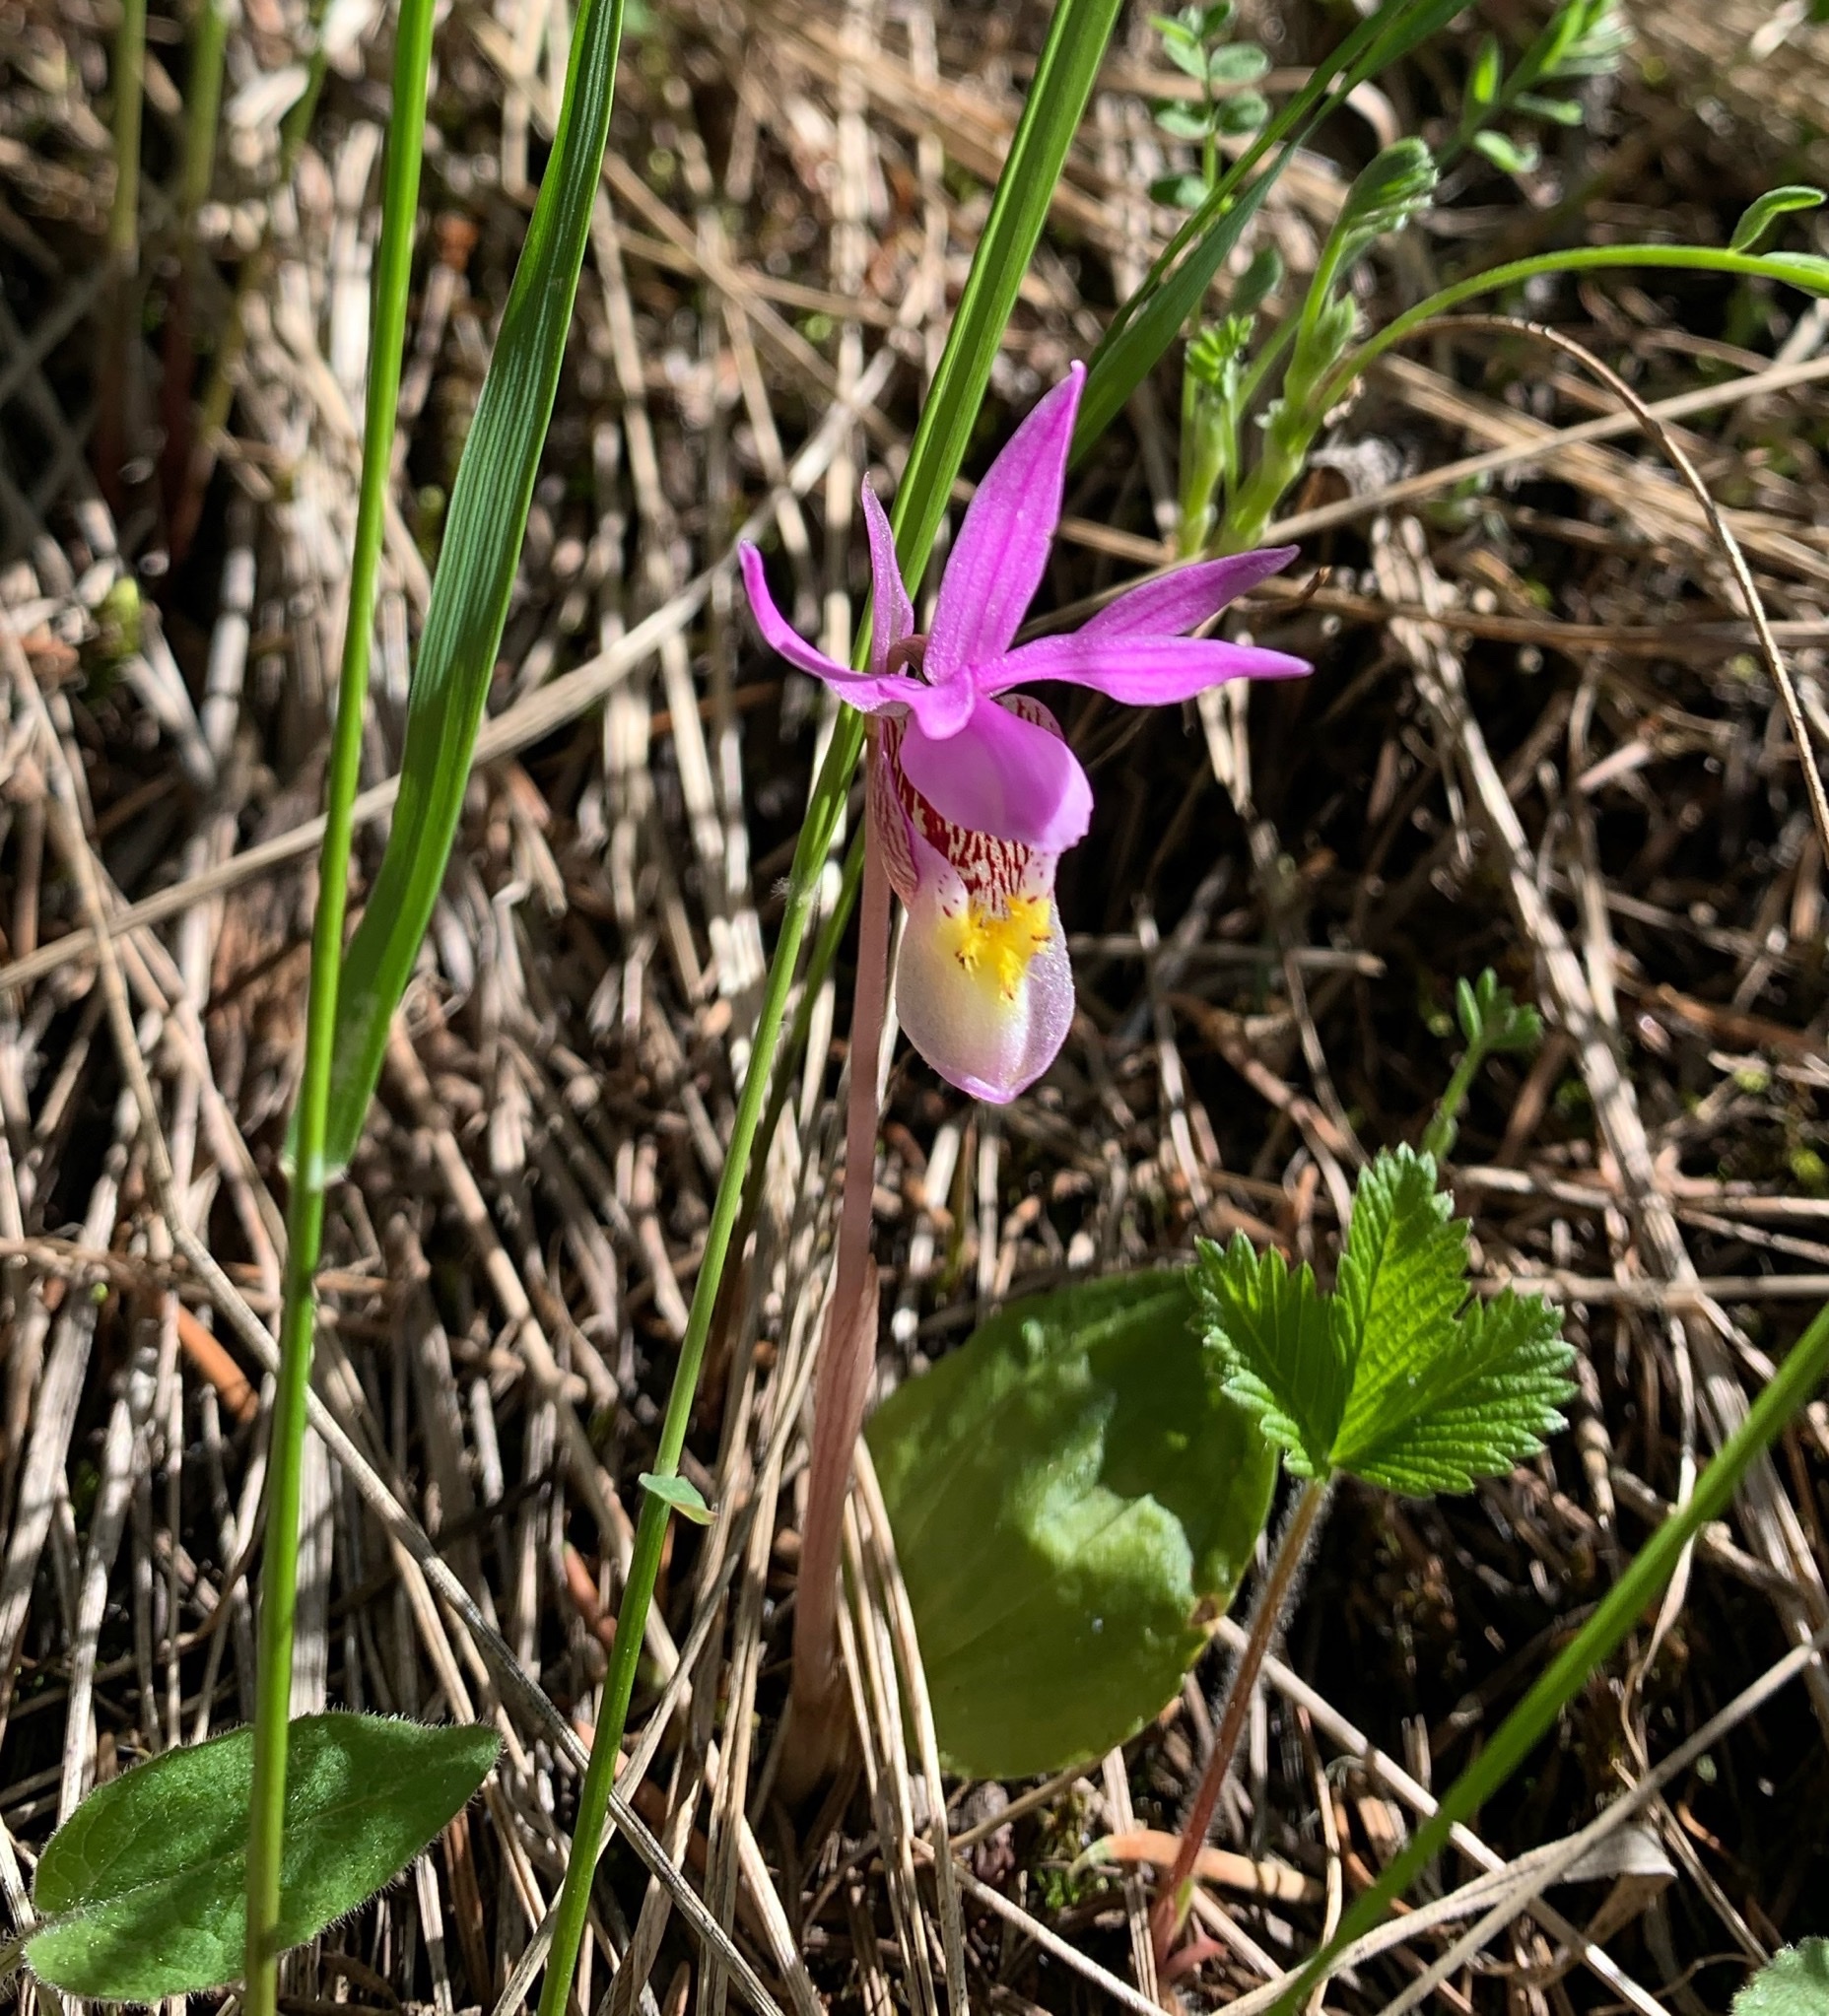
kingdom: Plantae
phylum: Tracheophyta
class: Liliopsida
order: Asparagales
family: Orchidaceae
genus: Calypso
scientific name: Calypso bulbosa
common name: Calypso
